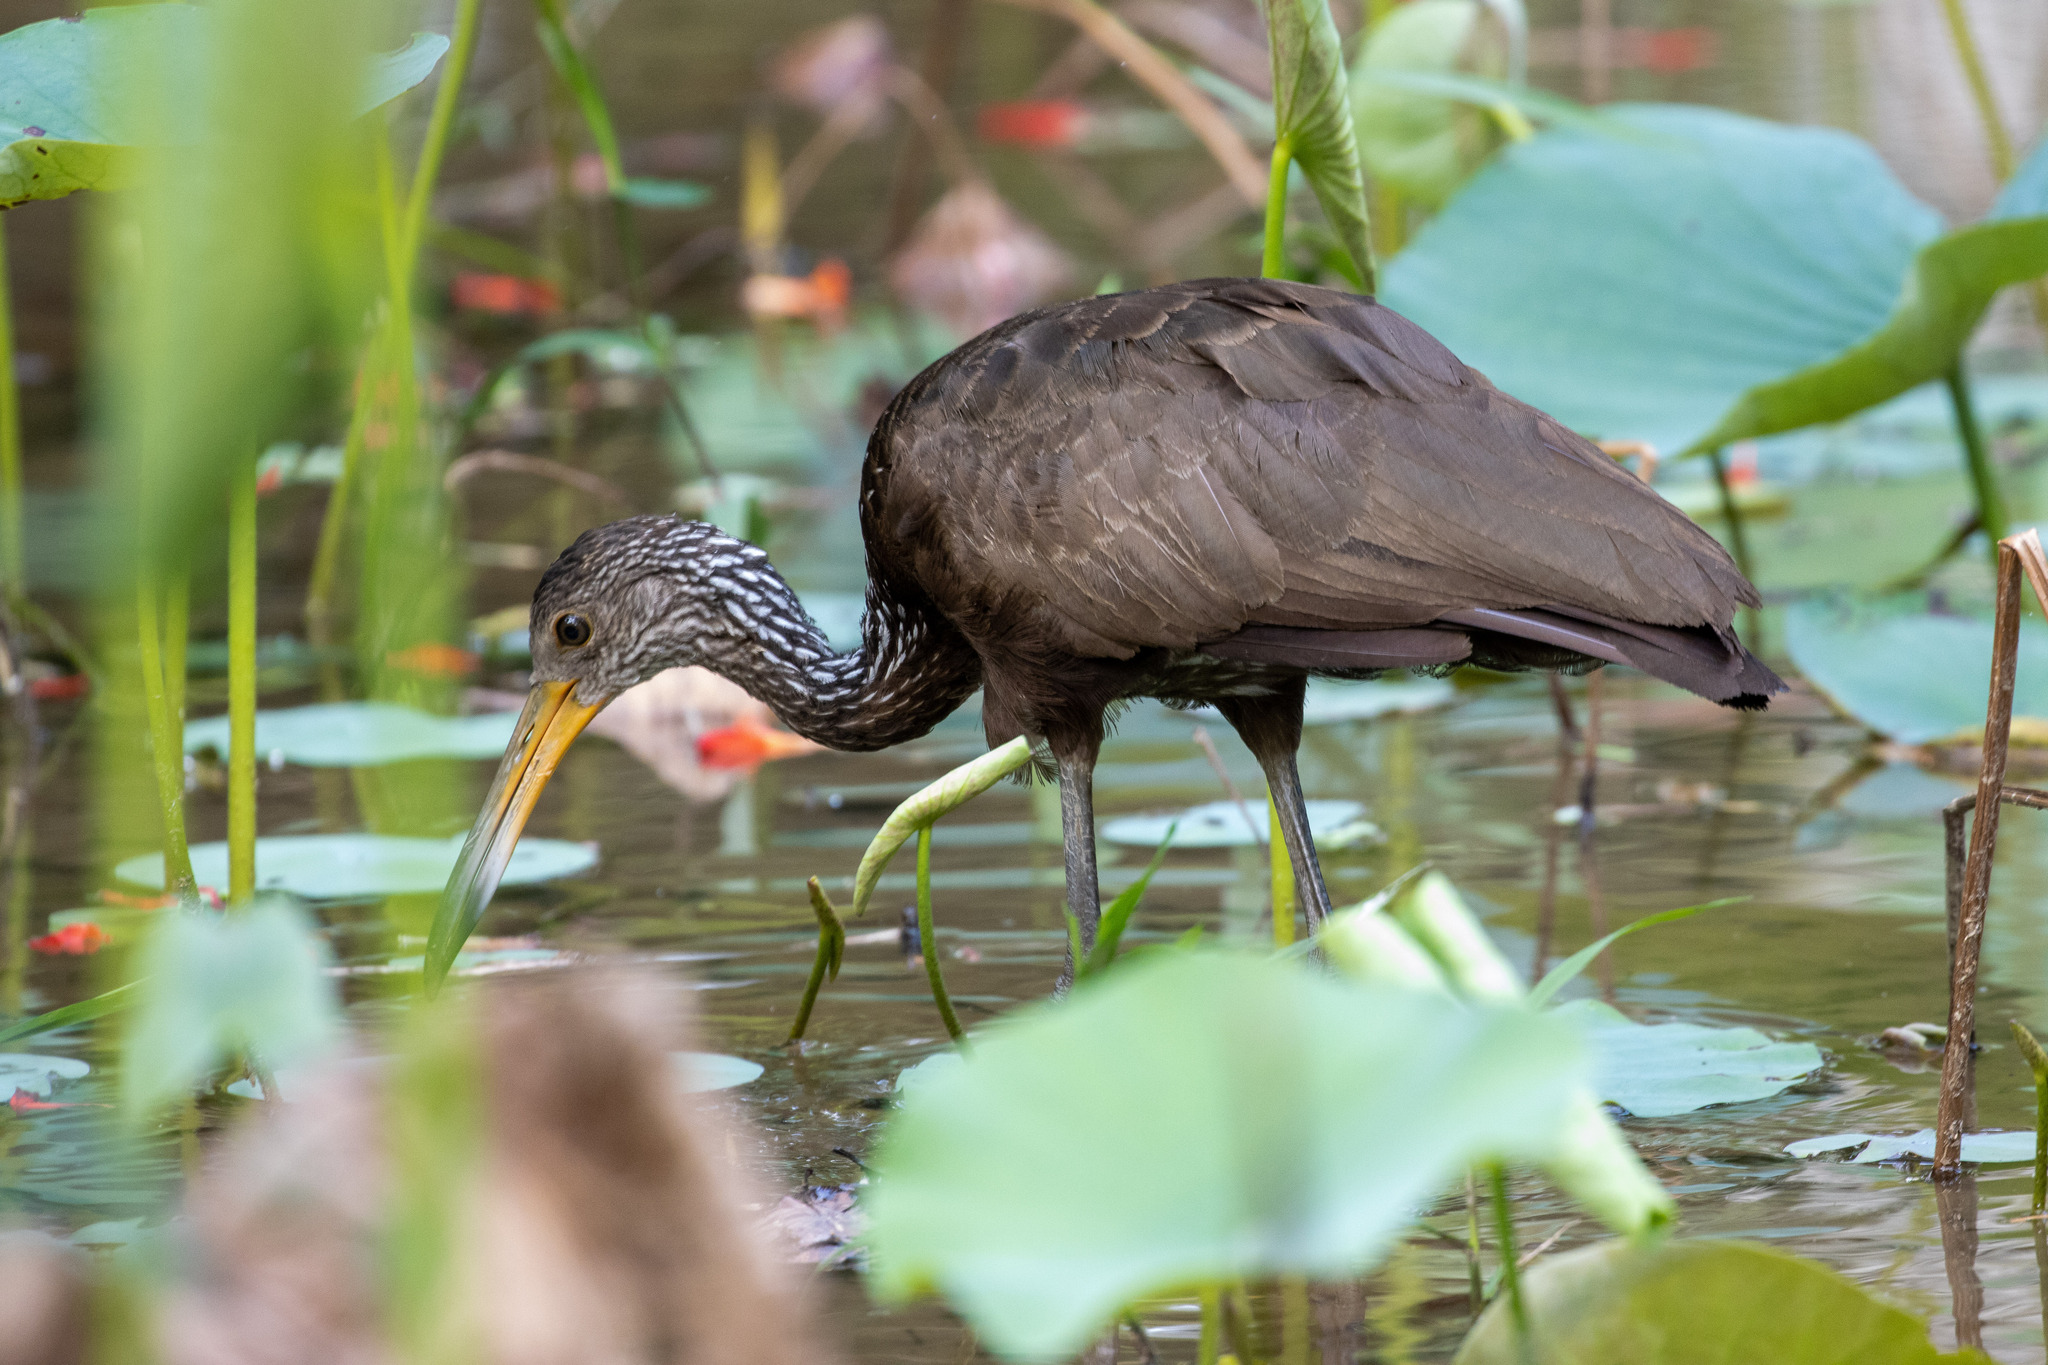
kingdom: Animalia
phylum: Chordata
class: Aves
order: Gruiformes
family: Aramidae
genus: Aramus
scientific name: Aramus guarauna
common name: Limpkin
